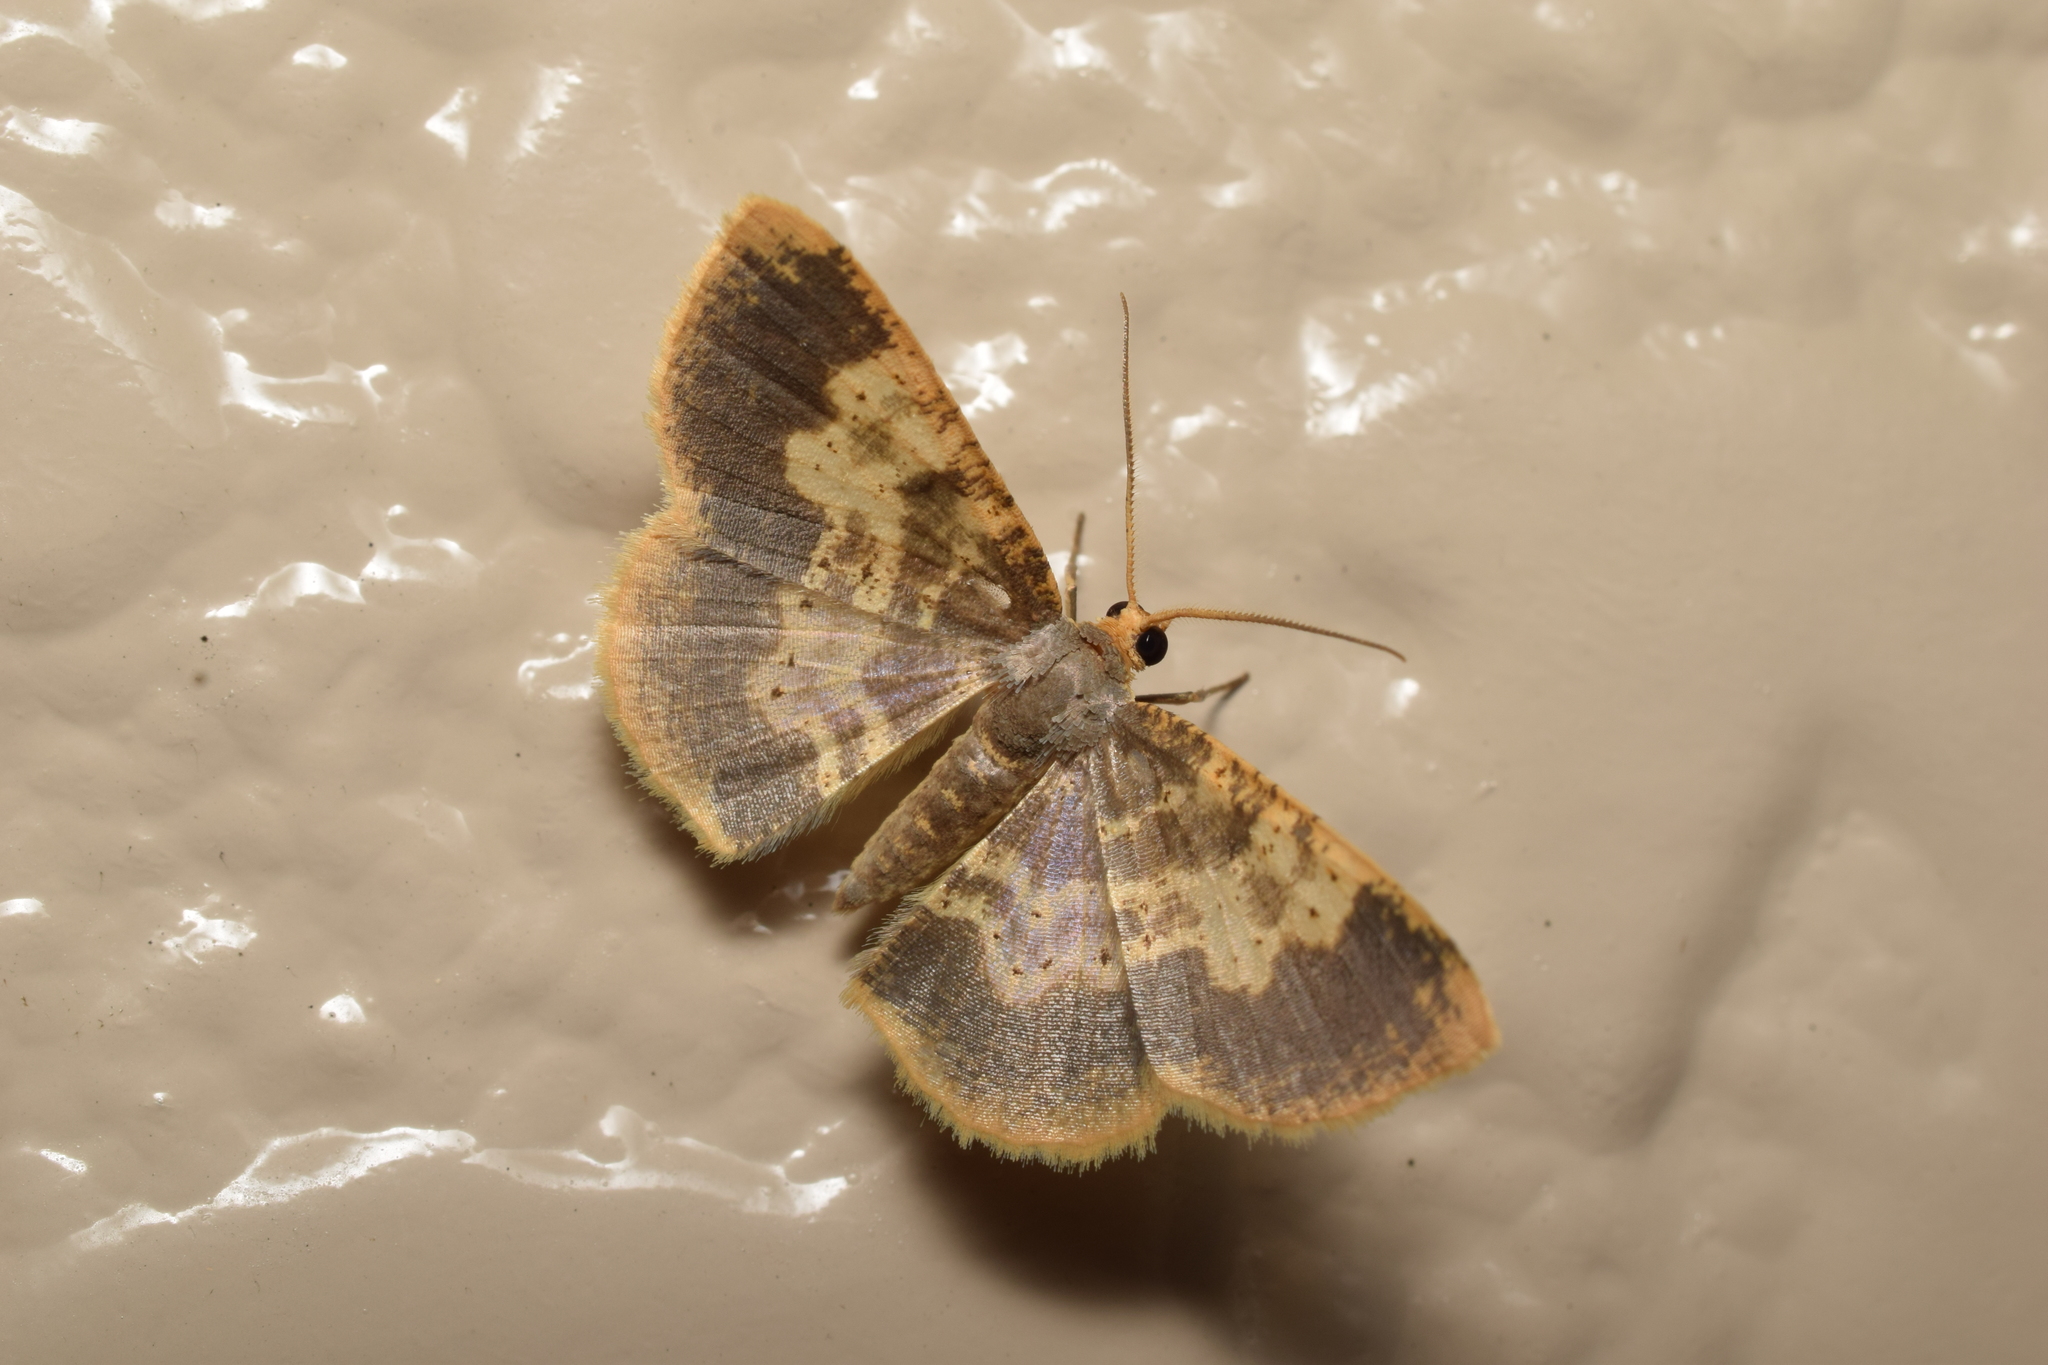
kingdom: Animalia
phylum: Arthropoda
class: Insecta
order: Lepidoptera
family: Geometridae
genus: Peratophyga
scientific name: Peratophyga grata
